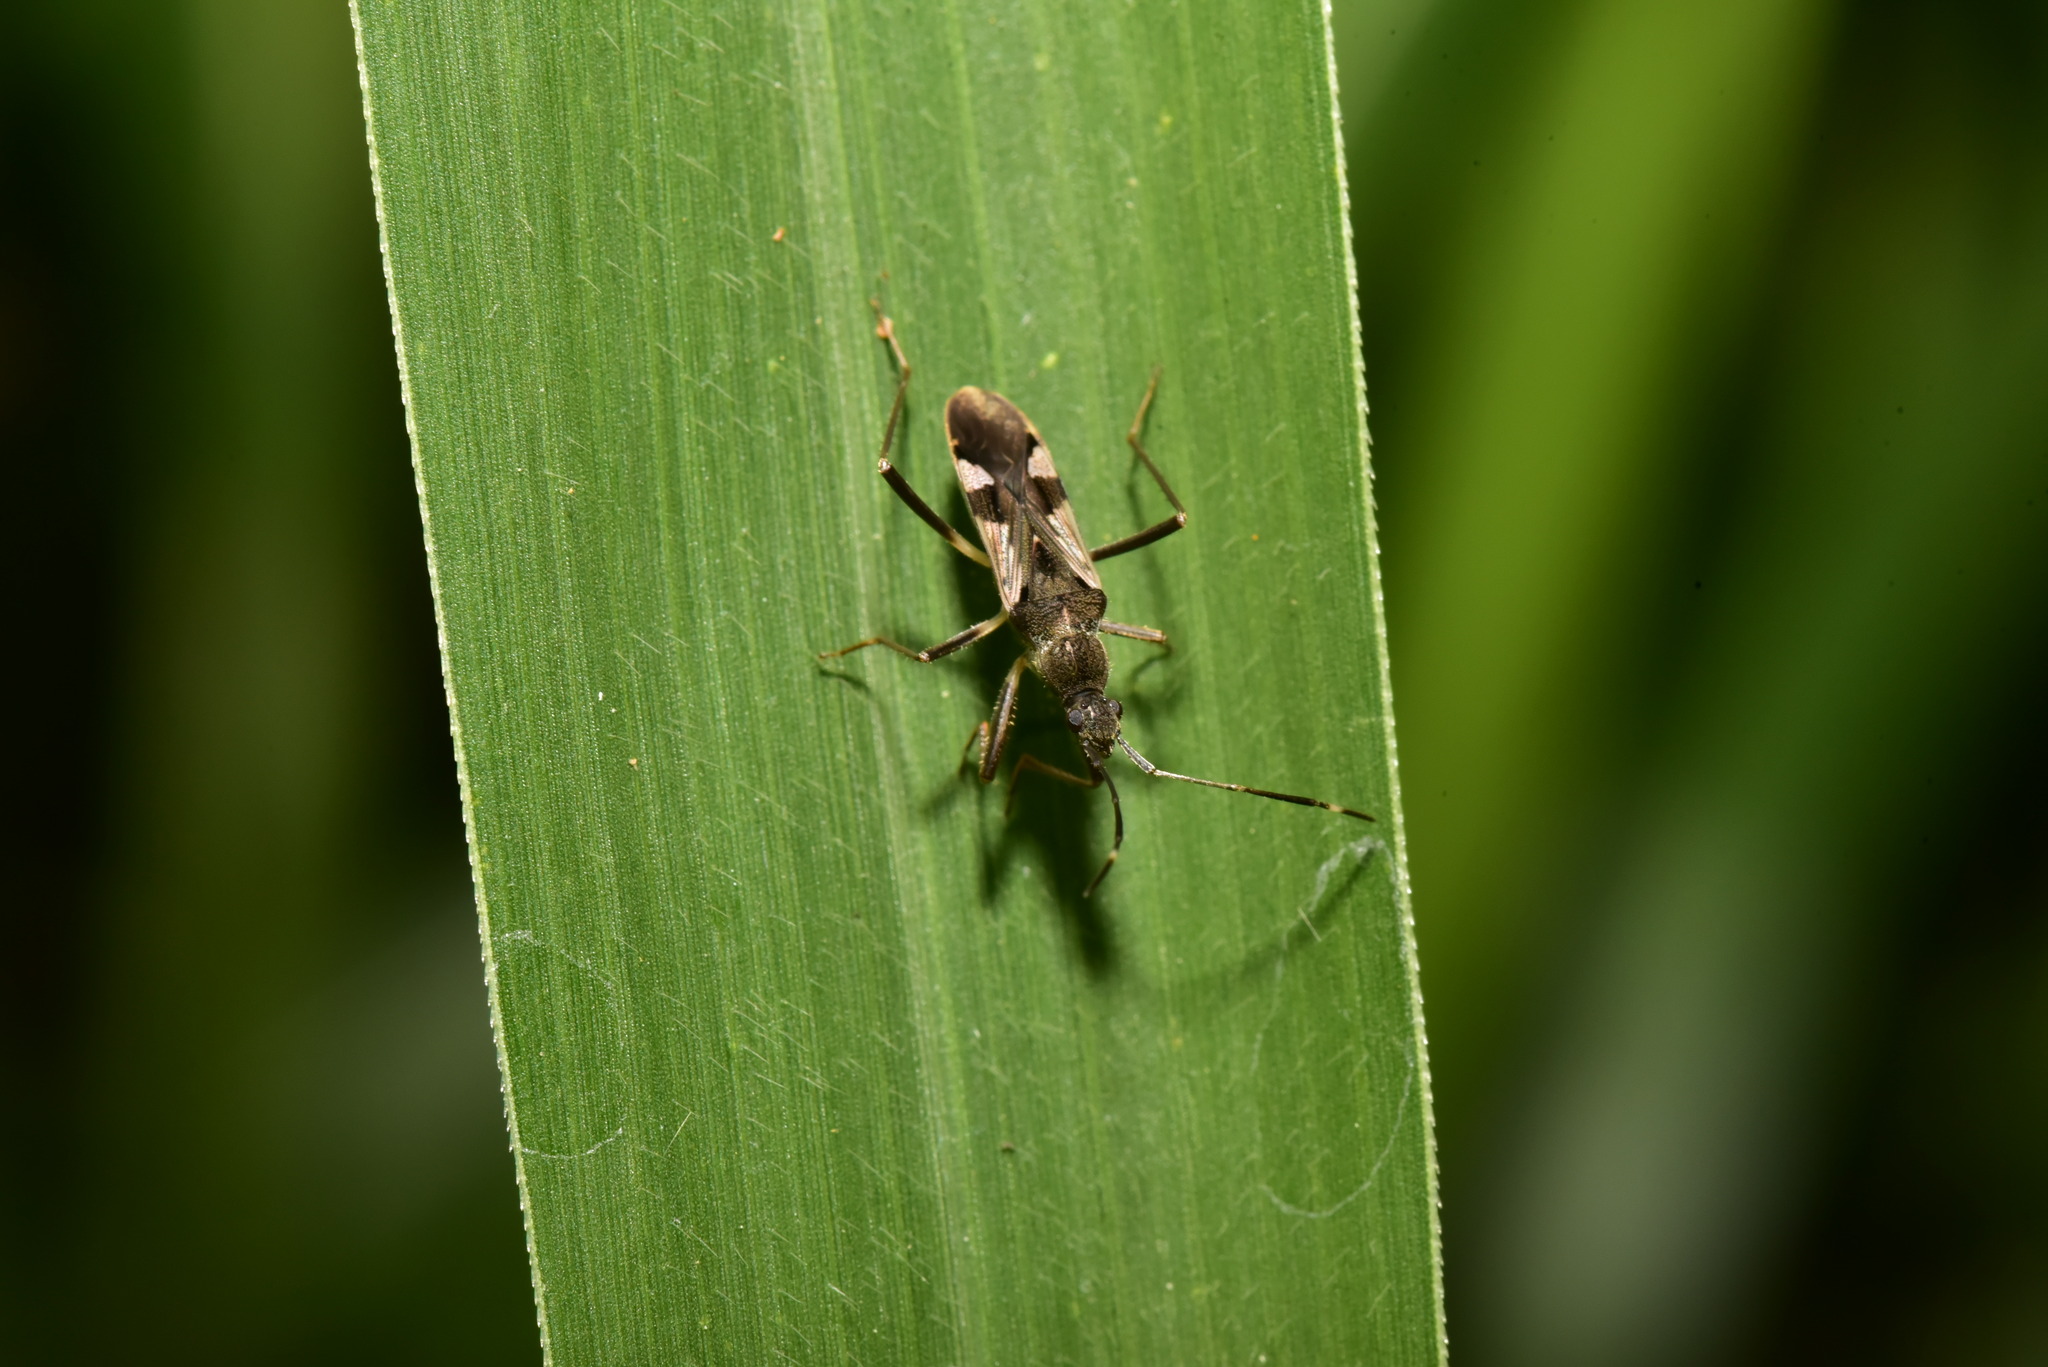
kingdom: Animalia
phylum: Arthropoda
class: Insecta
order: Hemiptera
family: Rhyparochromidae
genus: Metochus
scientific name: Metochus uniguttatus
